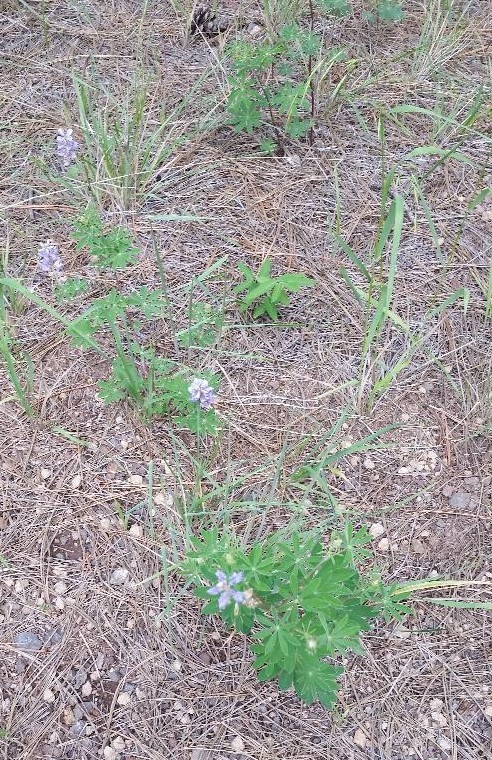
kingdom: Plantae
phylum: Tracheophyta
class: Magnoliopsida
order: Fabales
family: Fabaceae
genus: Lupinus
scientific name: Lupinus argenteus
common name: Silvery lupine
